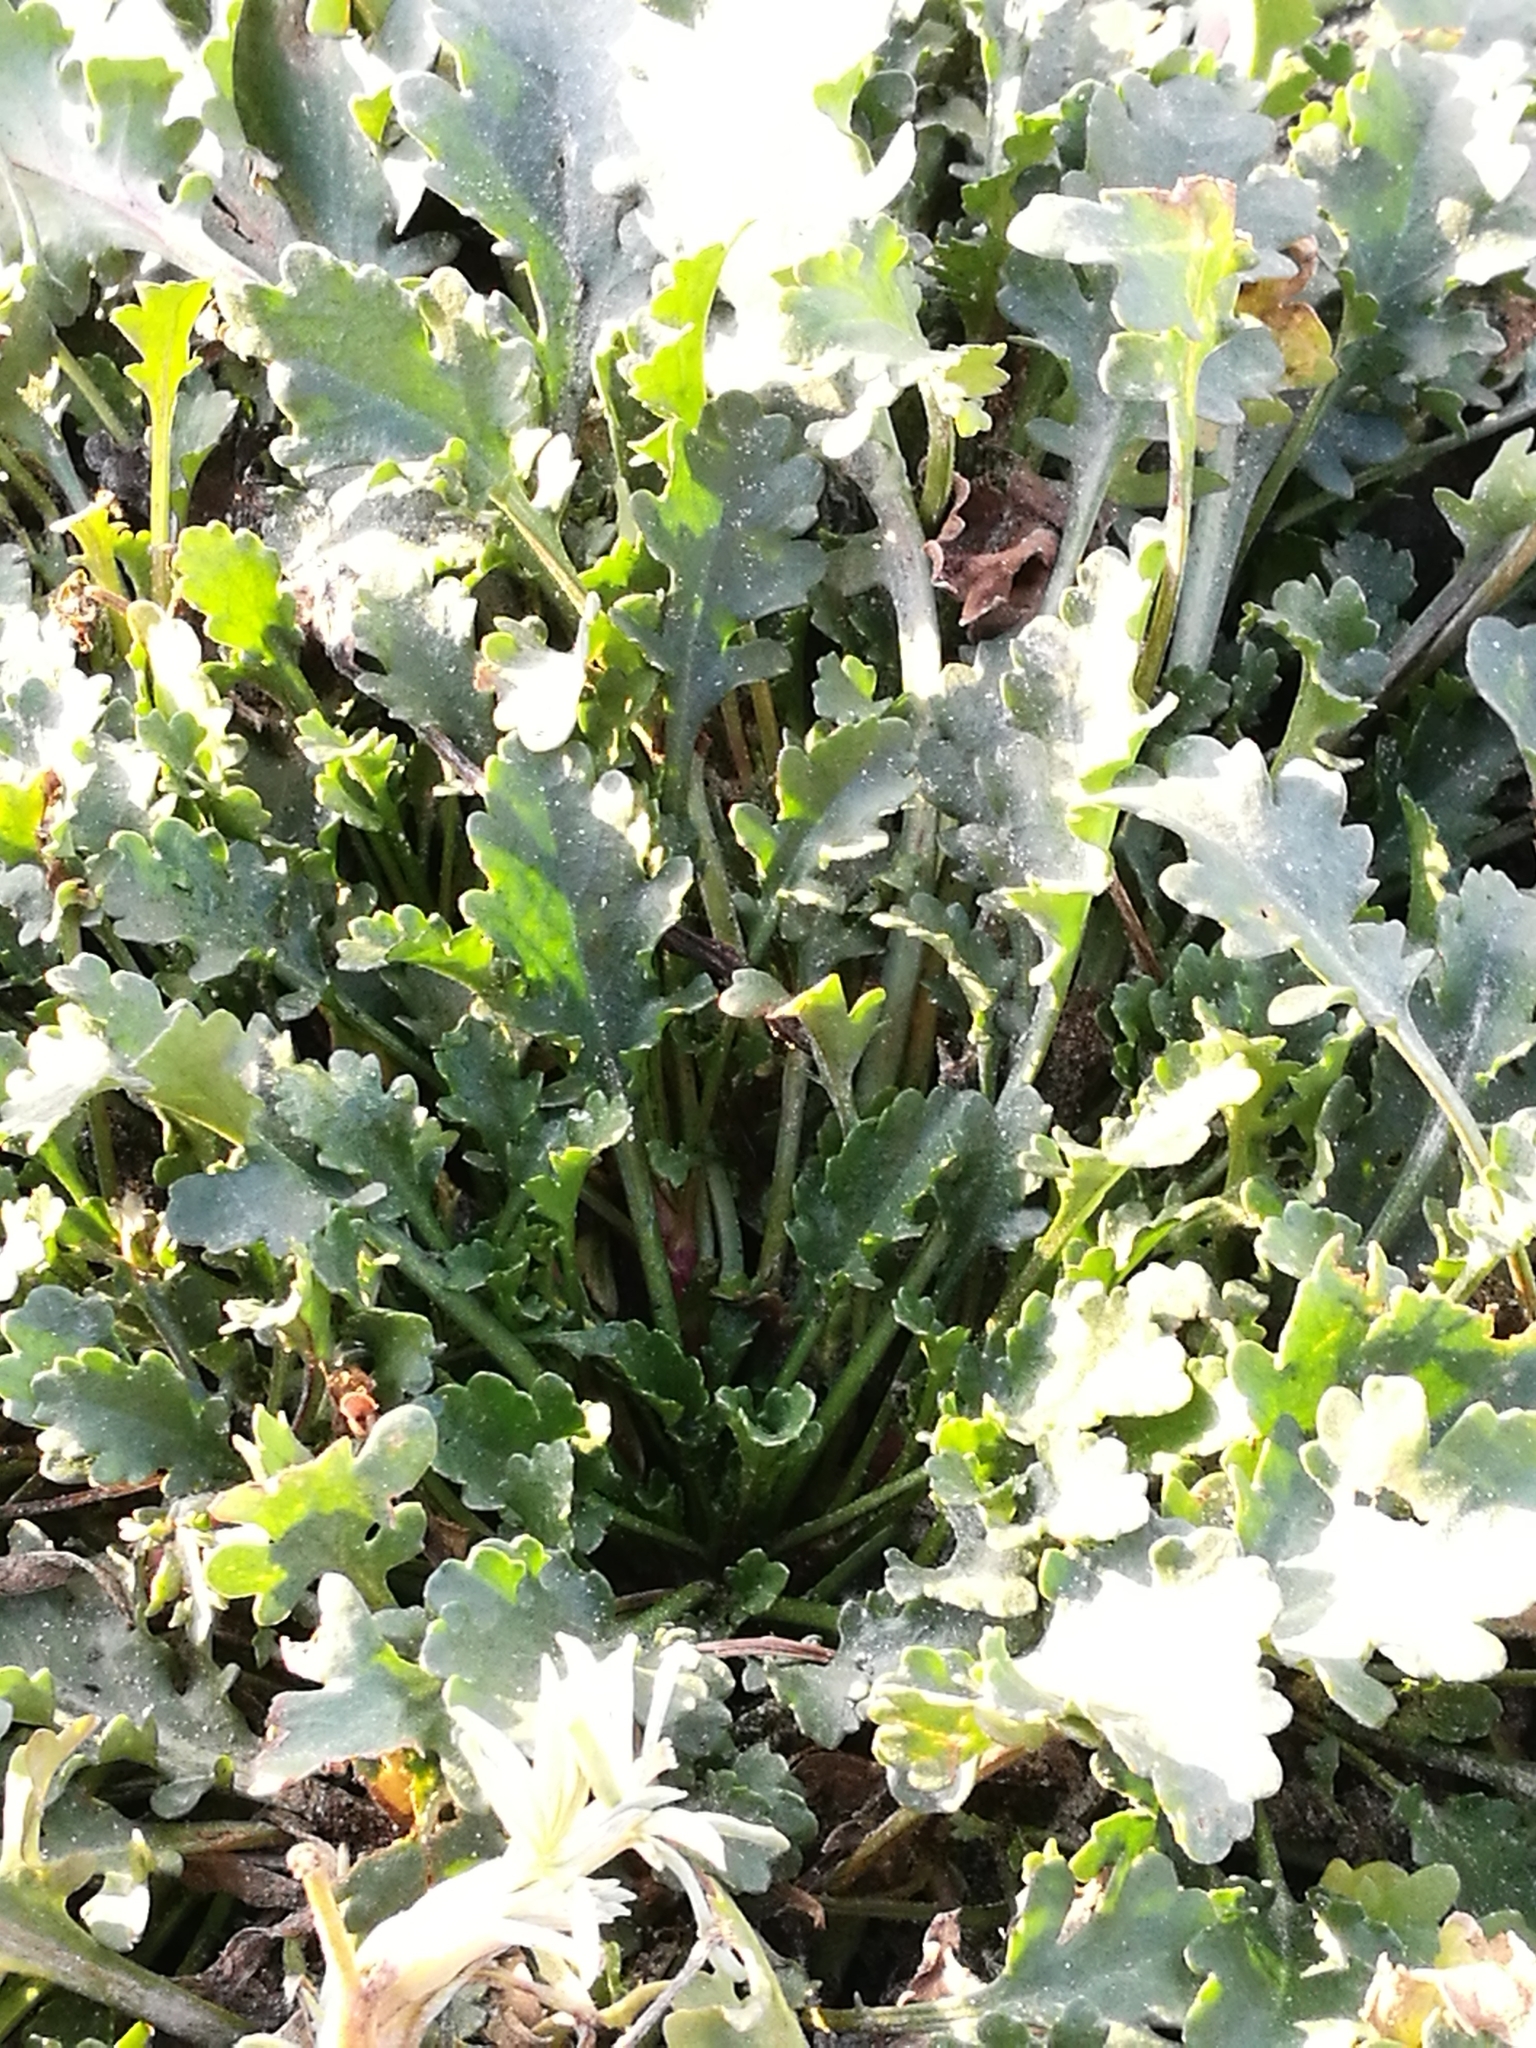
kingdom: Plantae
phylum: Tracheophyta
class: Magnoliopsida
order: Asterales
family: Asteraceae
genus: Leucanthemum
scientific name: Leucanthemum vulgare
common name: Oxeye daisy
